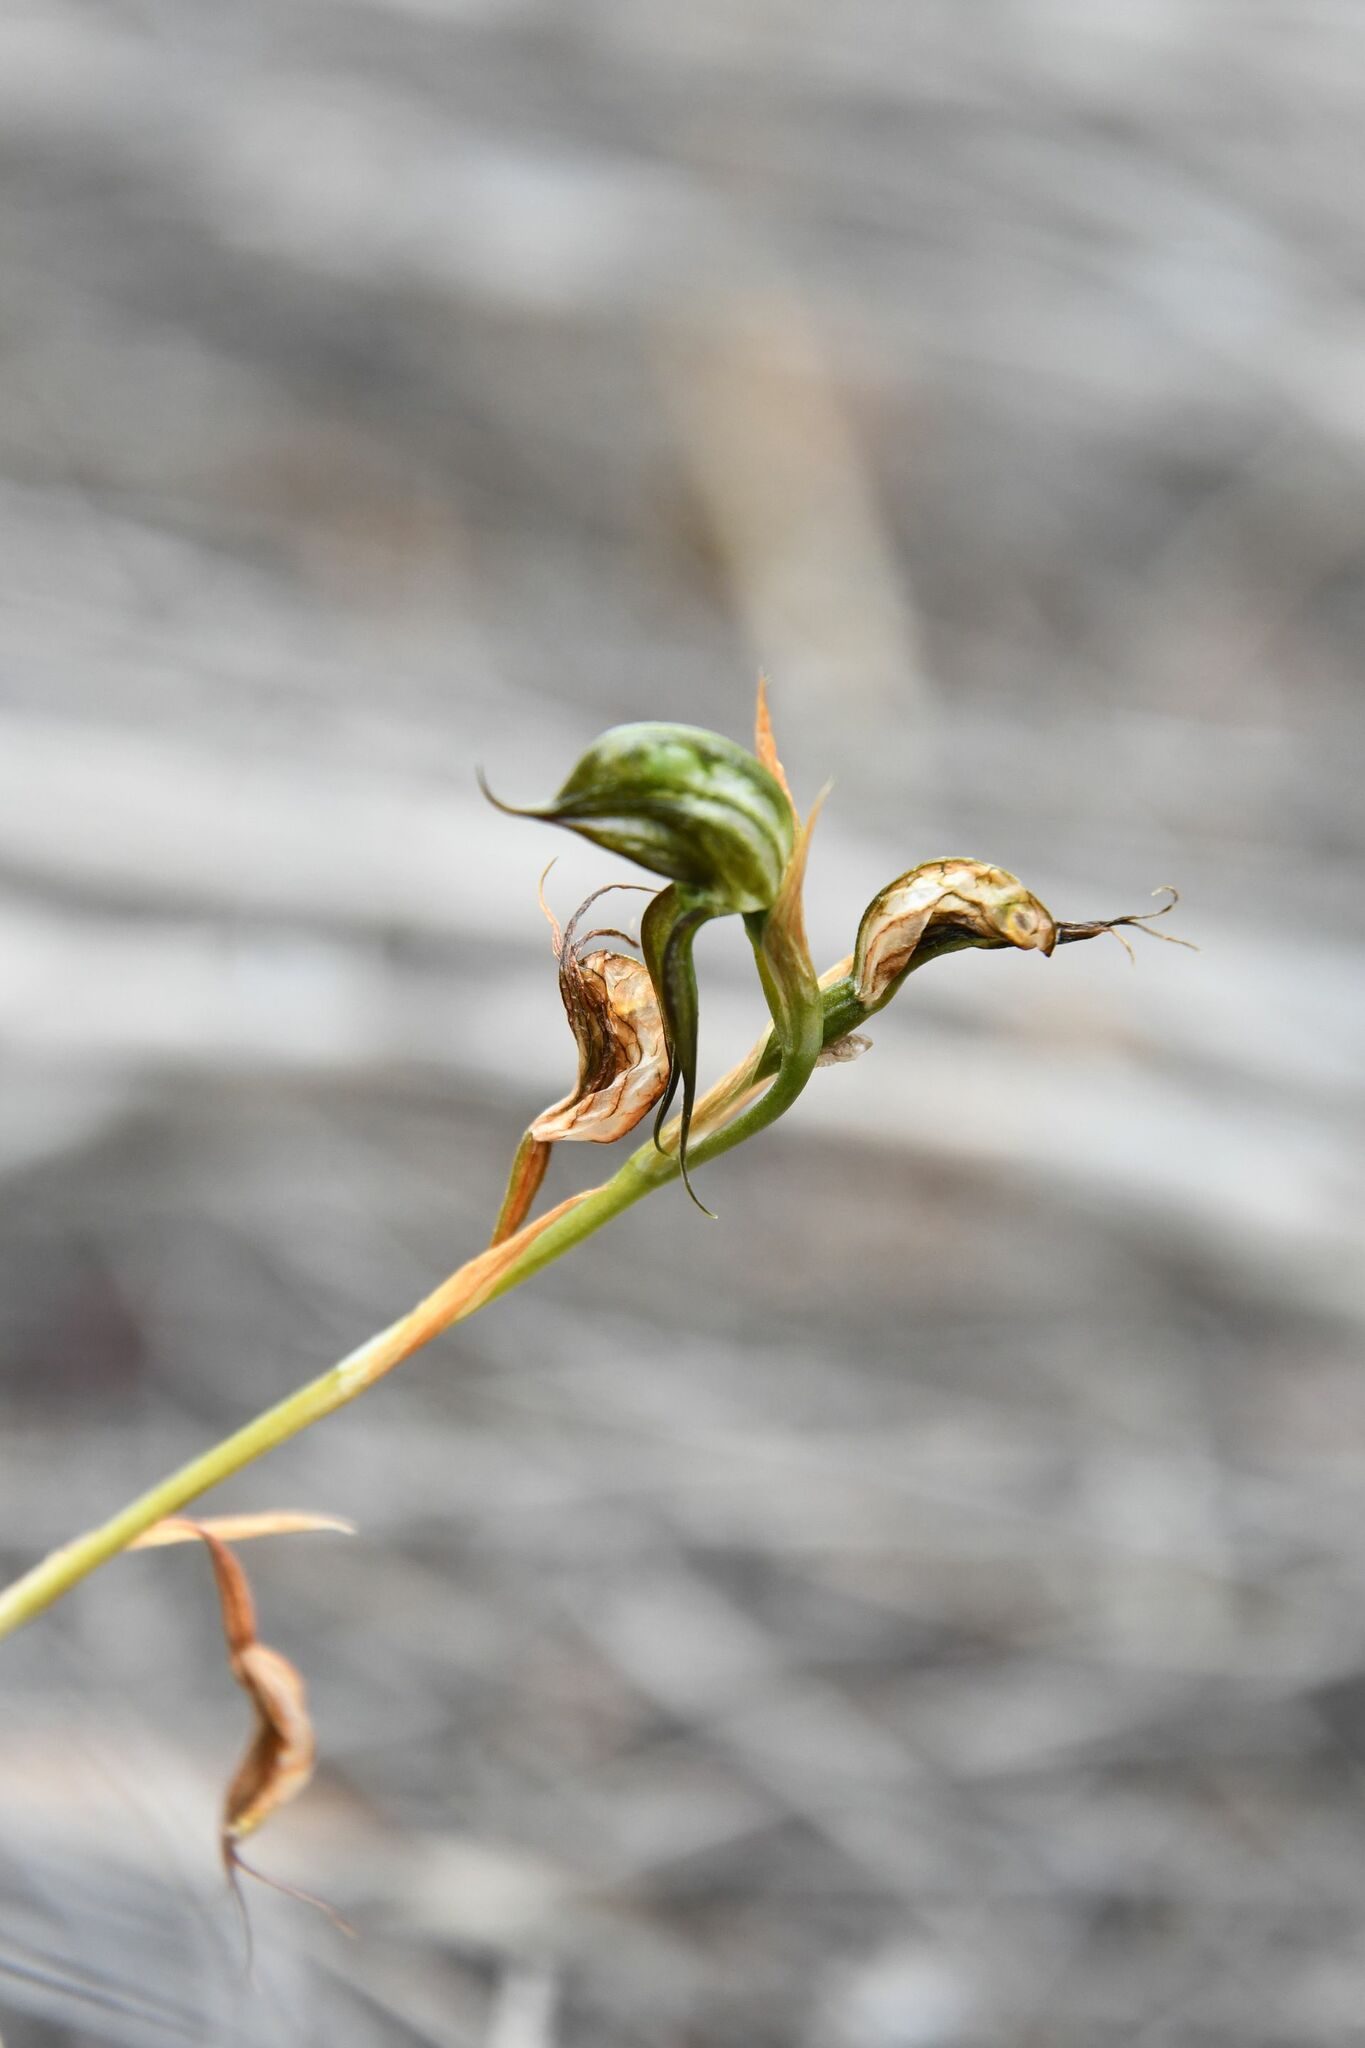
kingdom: Plantae
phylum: Tracheophyta
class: Liliopsida
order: Asparagales
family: Orchidaceae
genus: Pterostylis
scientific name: Pterostylis roensis
